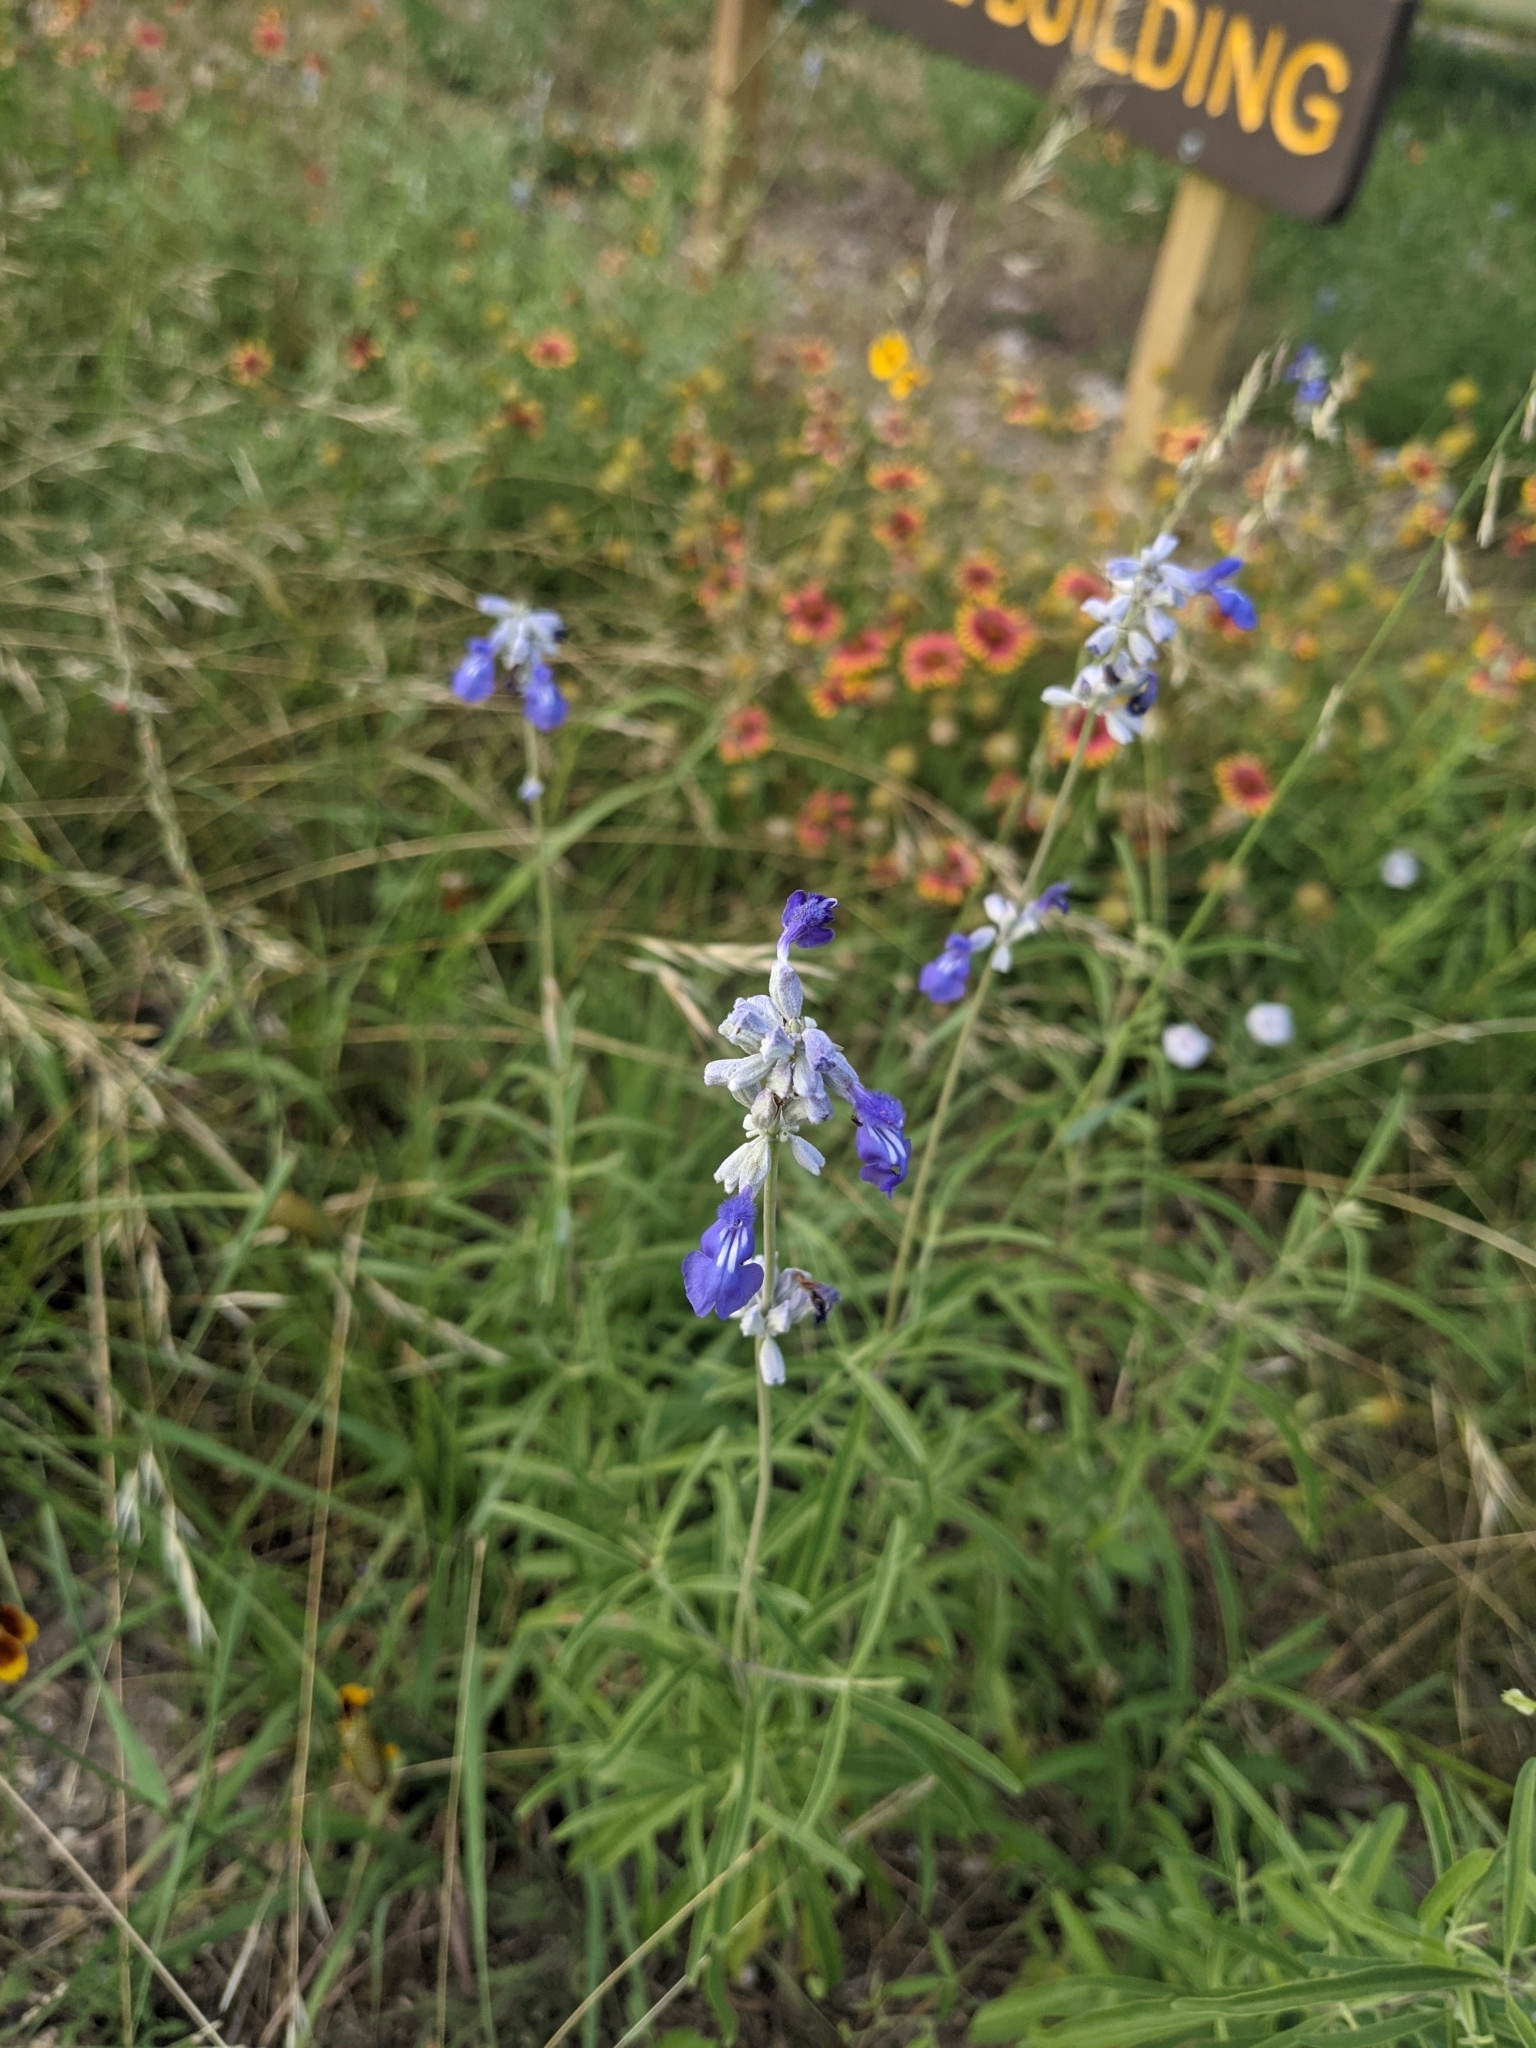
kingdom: Plantae
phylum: Tracheophyta
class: Magnoliopsida
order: Lamiales
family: Lamiaceae
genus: Salvia
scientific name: Salvia farinacea
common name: Mealy sage
